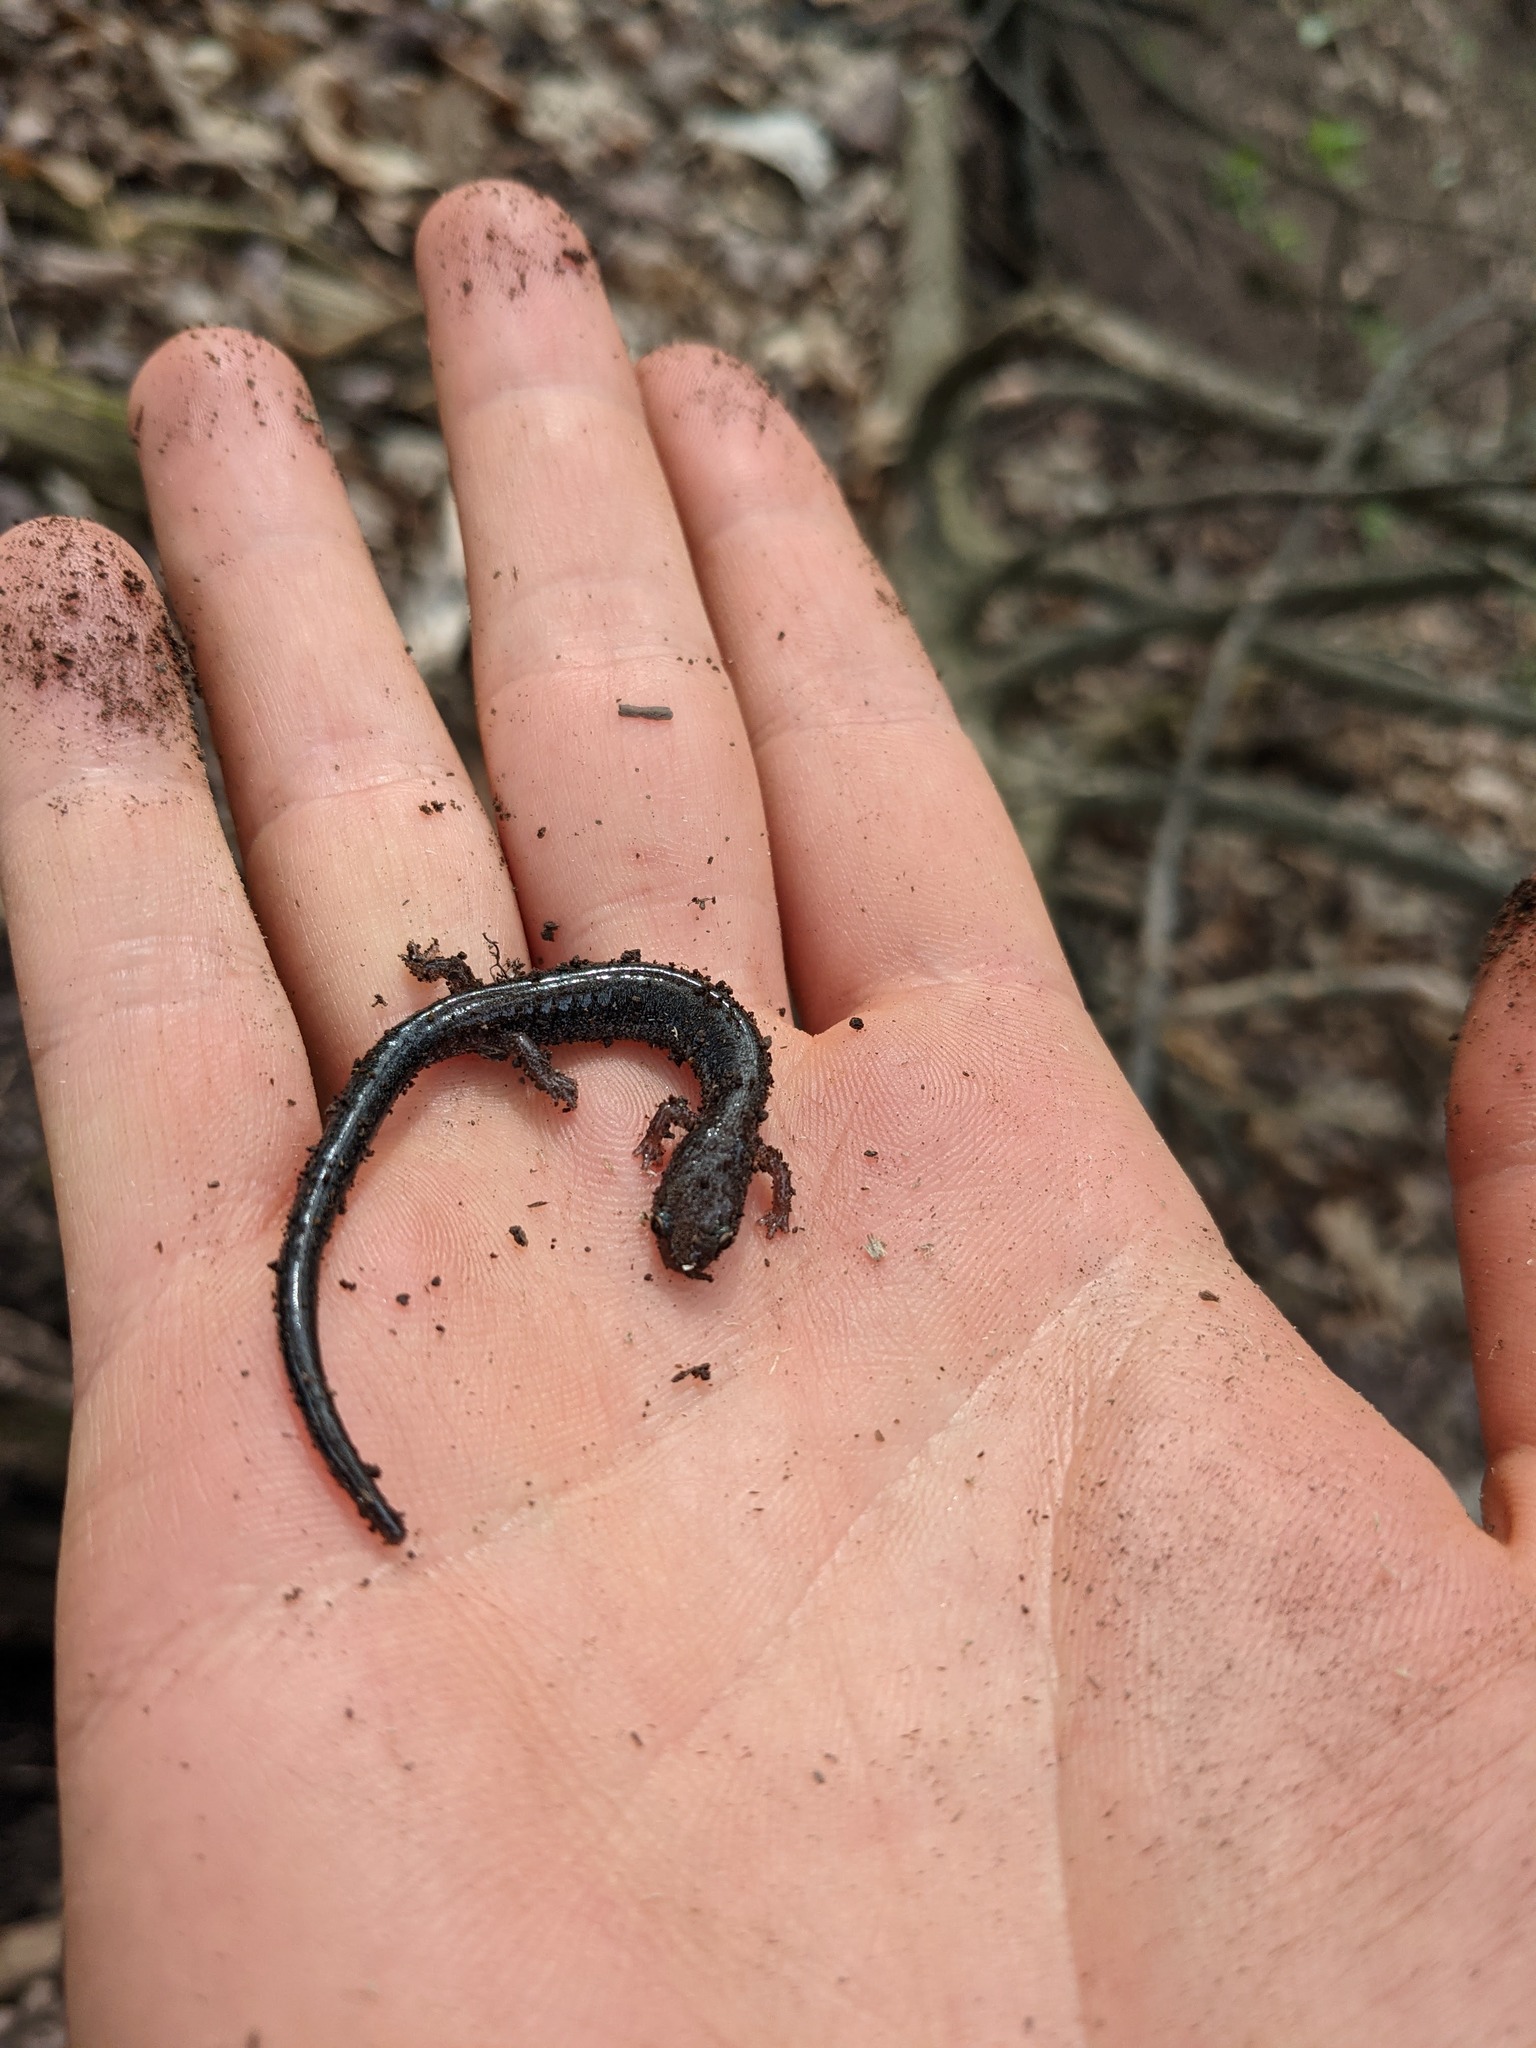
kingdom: Animalia
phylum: Chordata
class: Amphibia
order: Caudata
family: Plethodontidae
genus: Plethodon
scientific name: Plethodon cinereus
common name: Redback salamander
